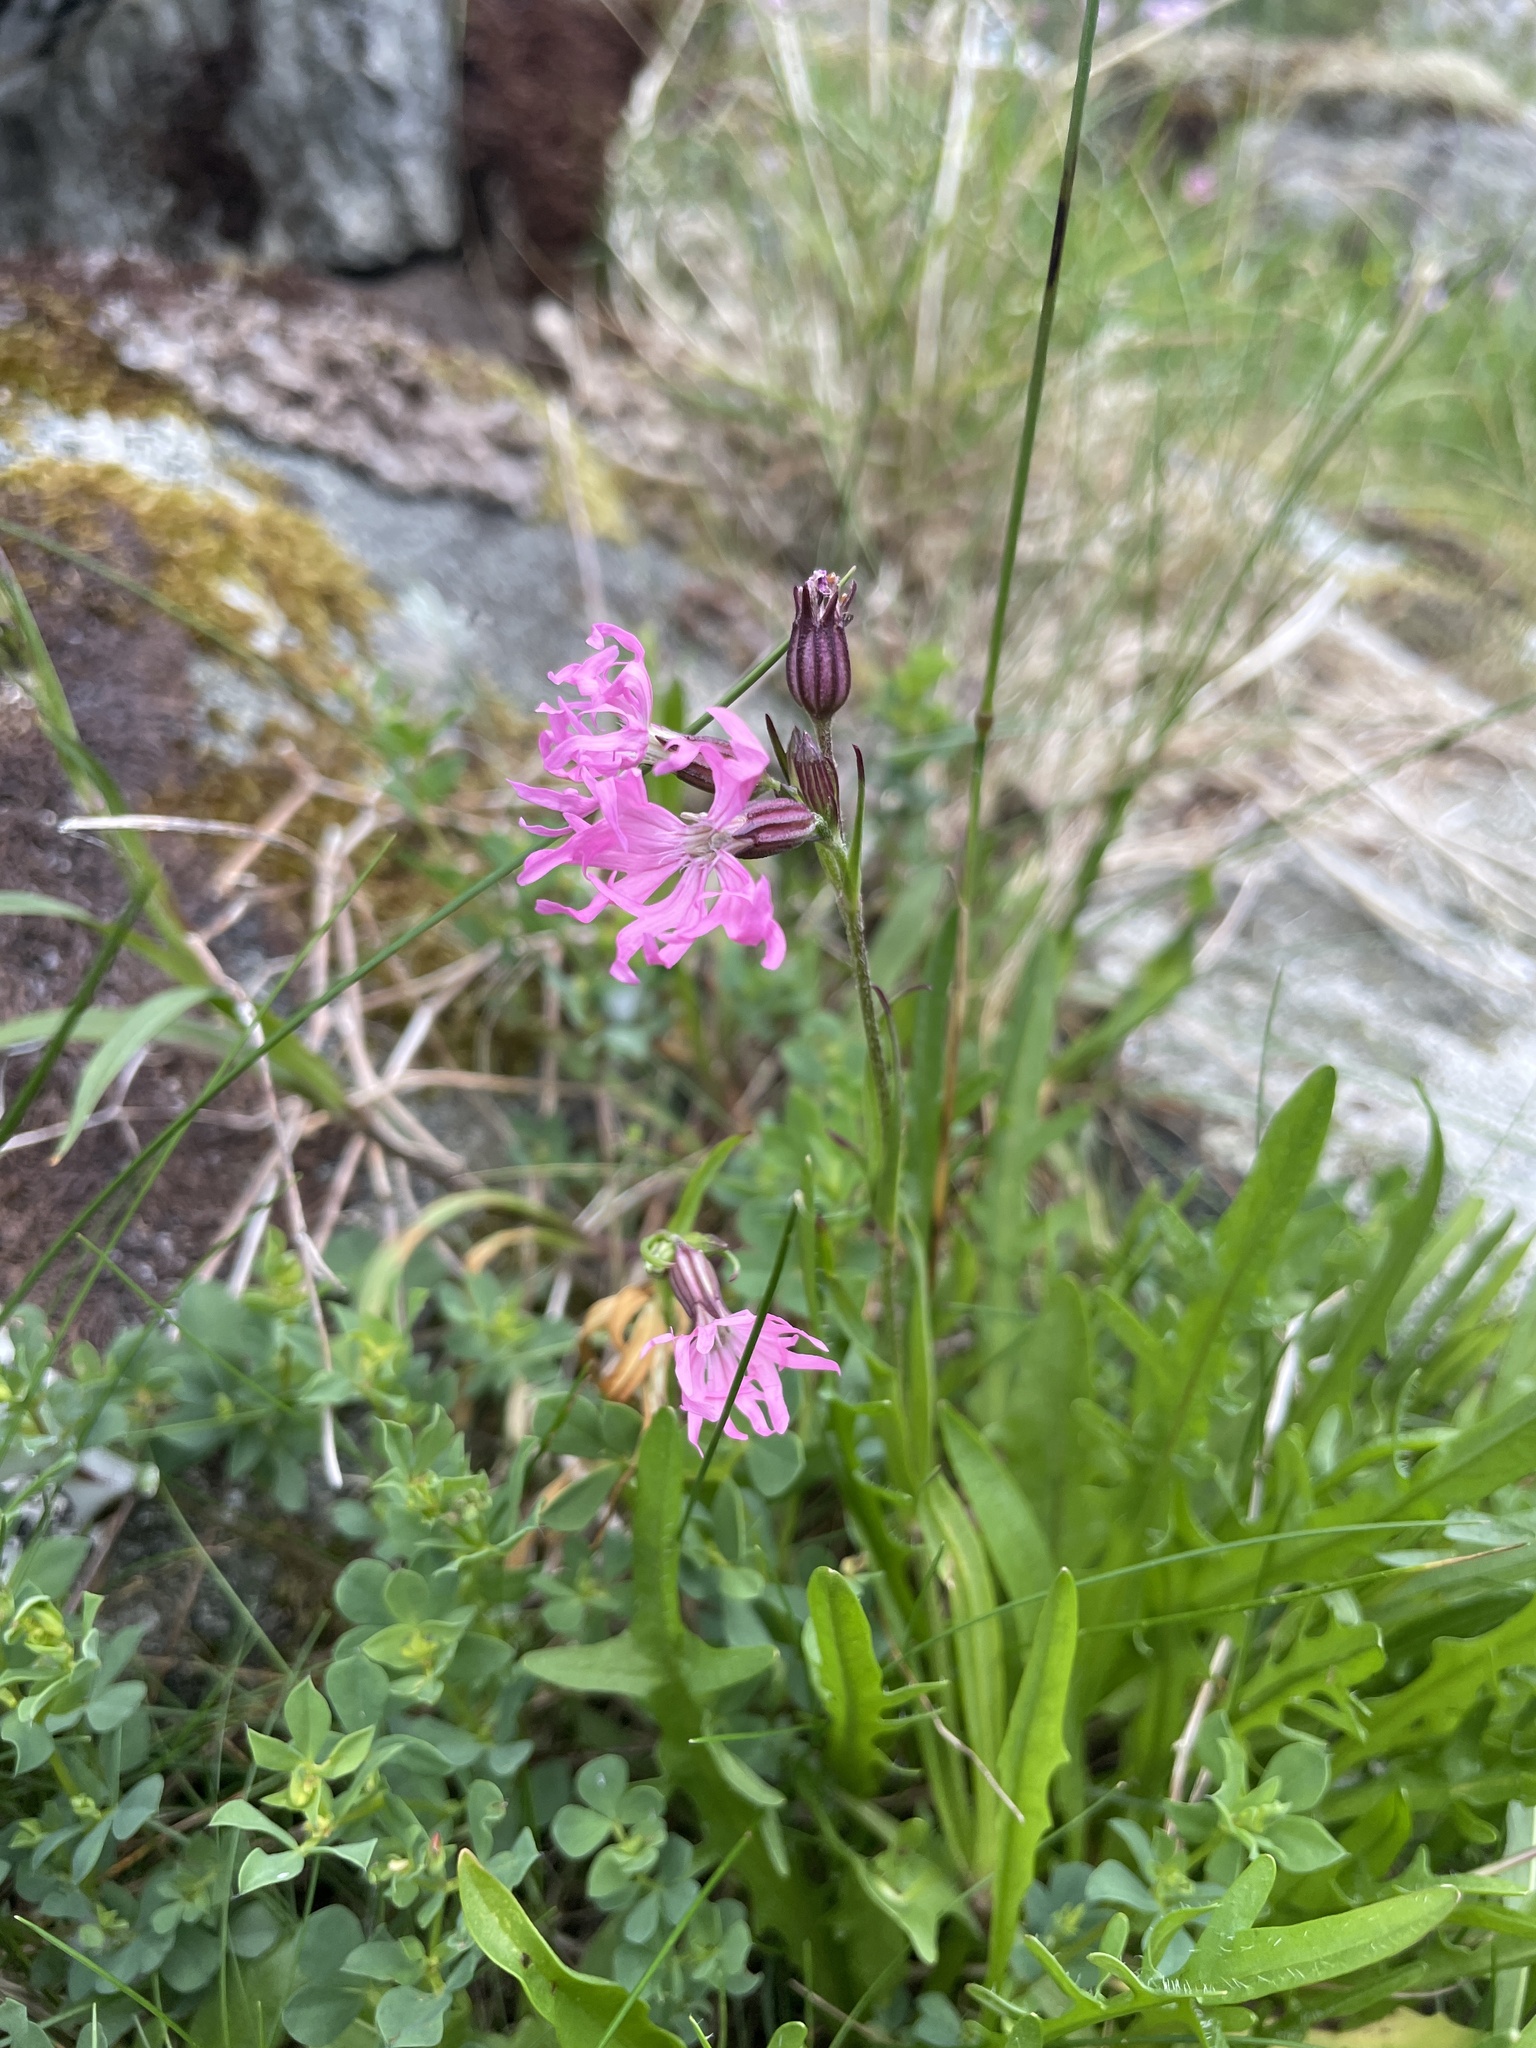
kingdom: Plantae
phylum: Tracheophyta
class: Magnoliopsida
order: Caryophyllales
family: Caryophyllaceae
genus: Silene
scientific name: Silene flos-cuculi
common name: Ragged-robin
